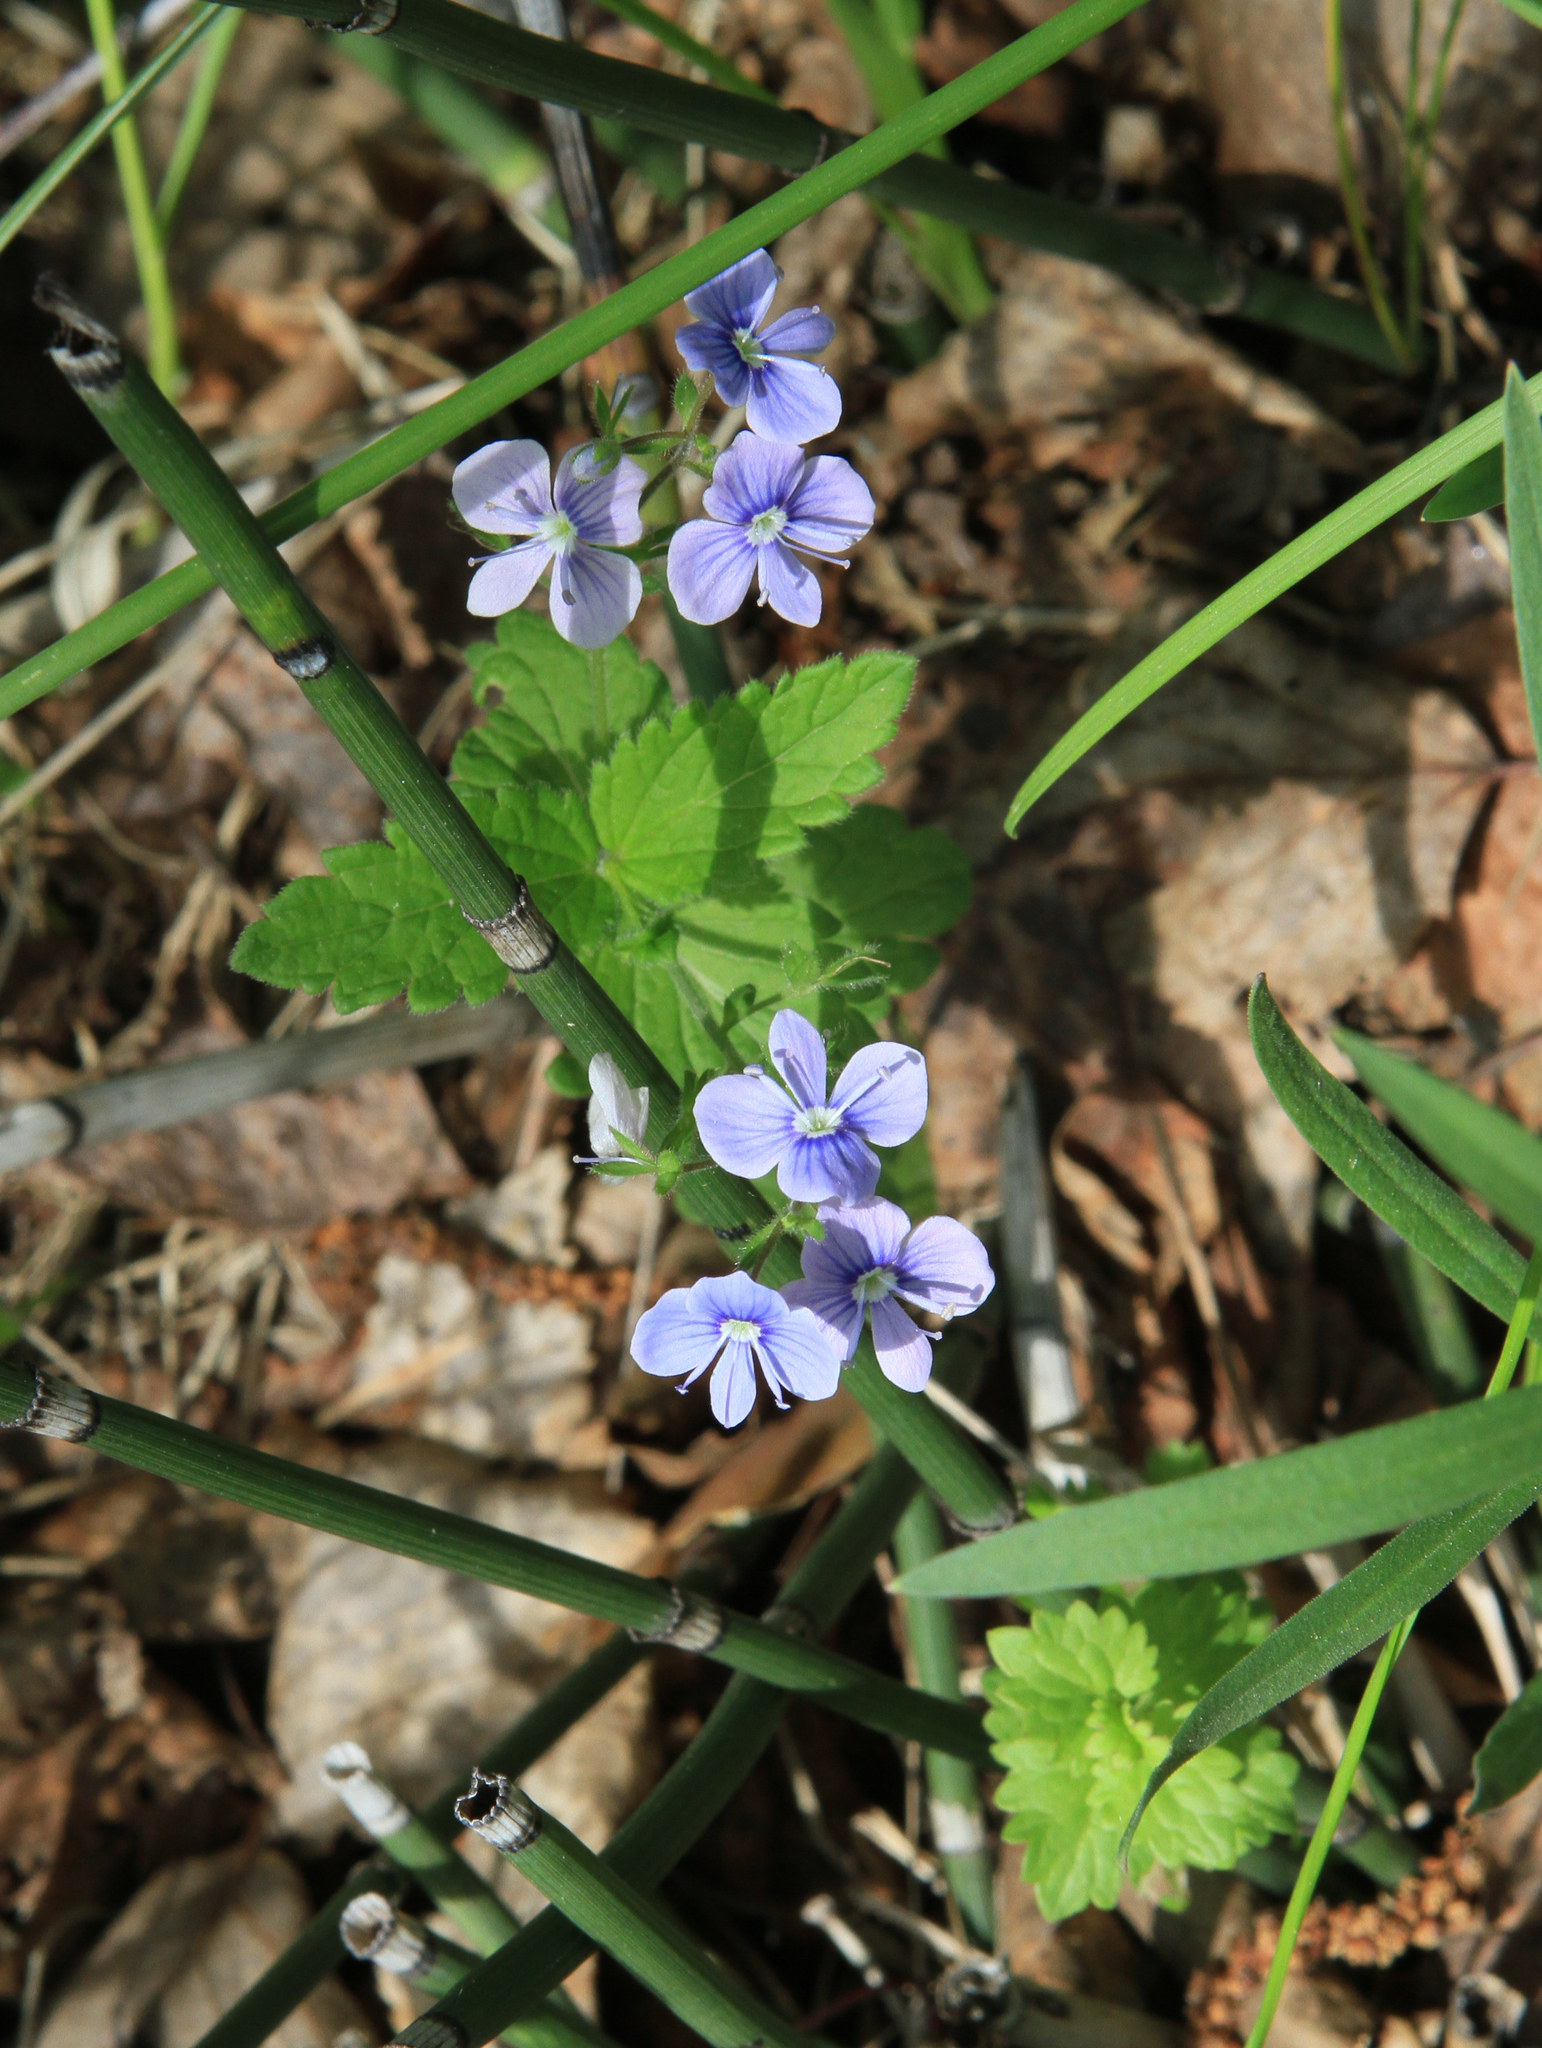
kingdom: Plantae
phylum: Tracheophyta
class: Magnoliopsida
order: Lamiales
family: Plantaginaceae
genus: Veronica
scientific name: Veronica chamaedrys
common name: Germander speedwell
